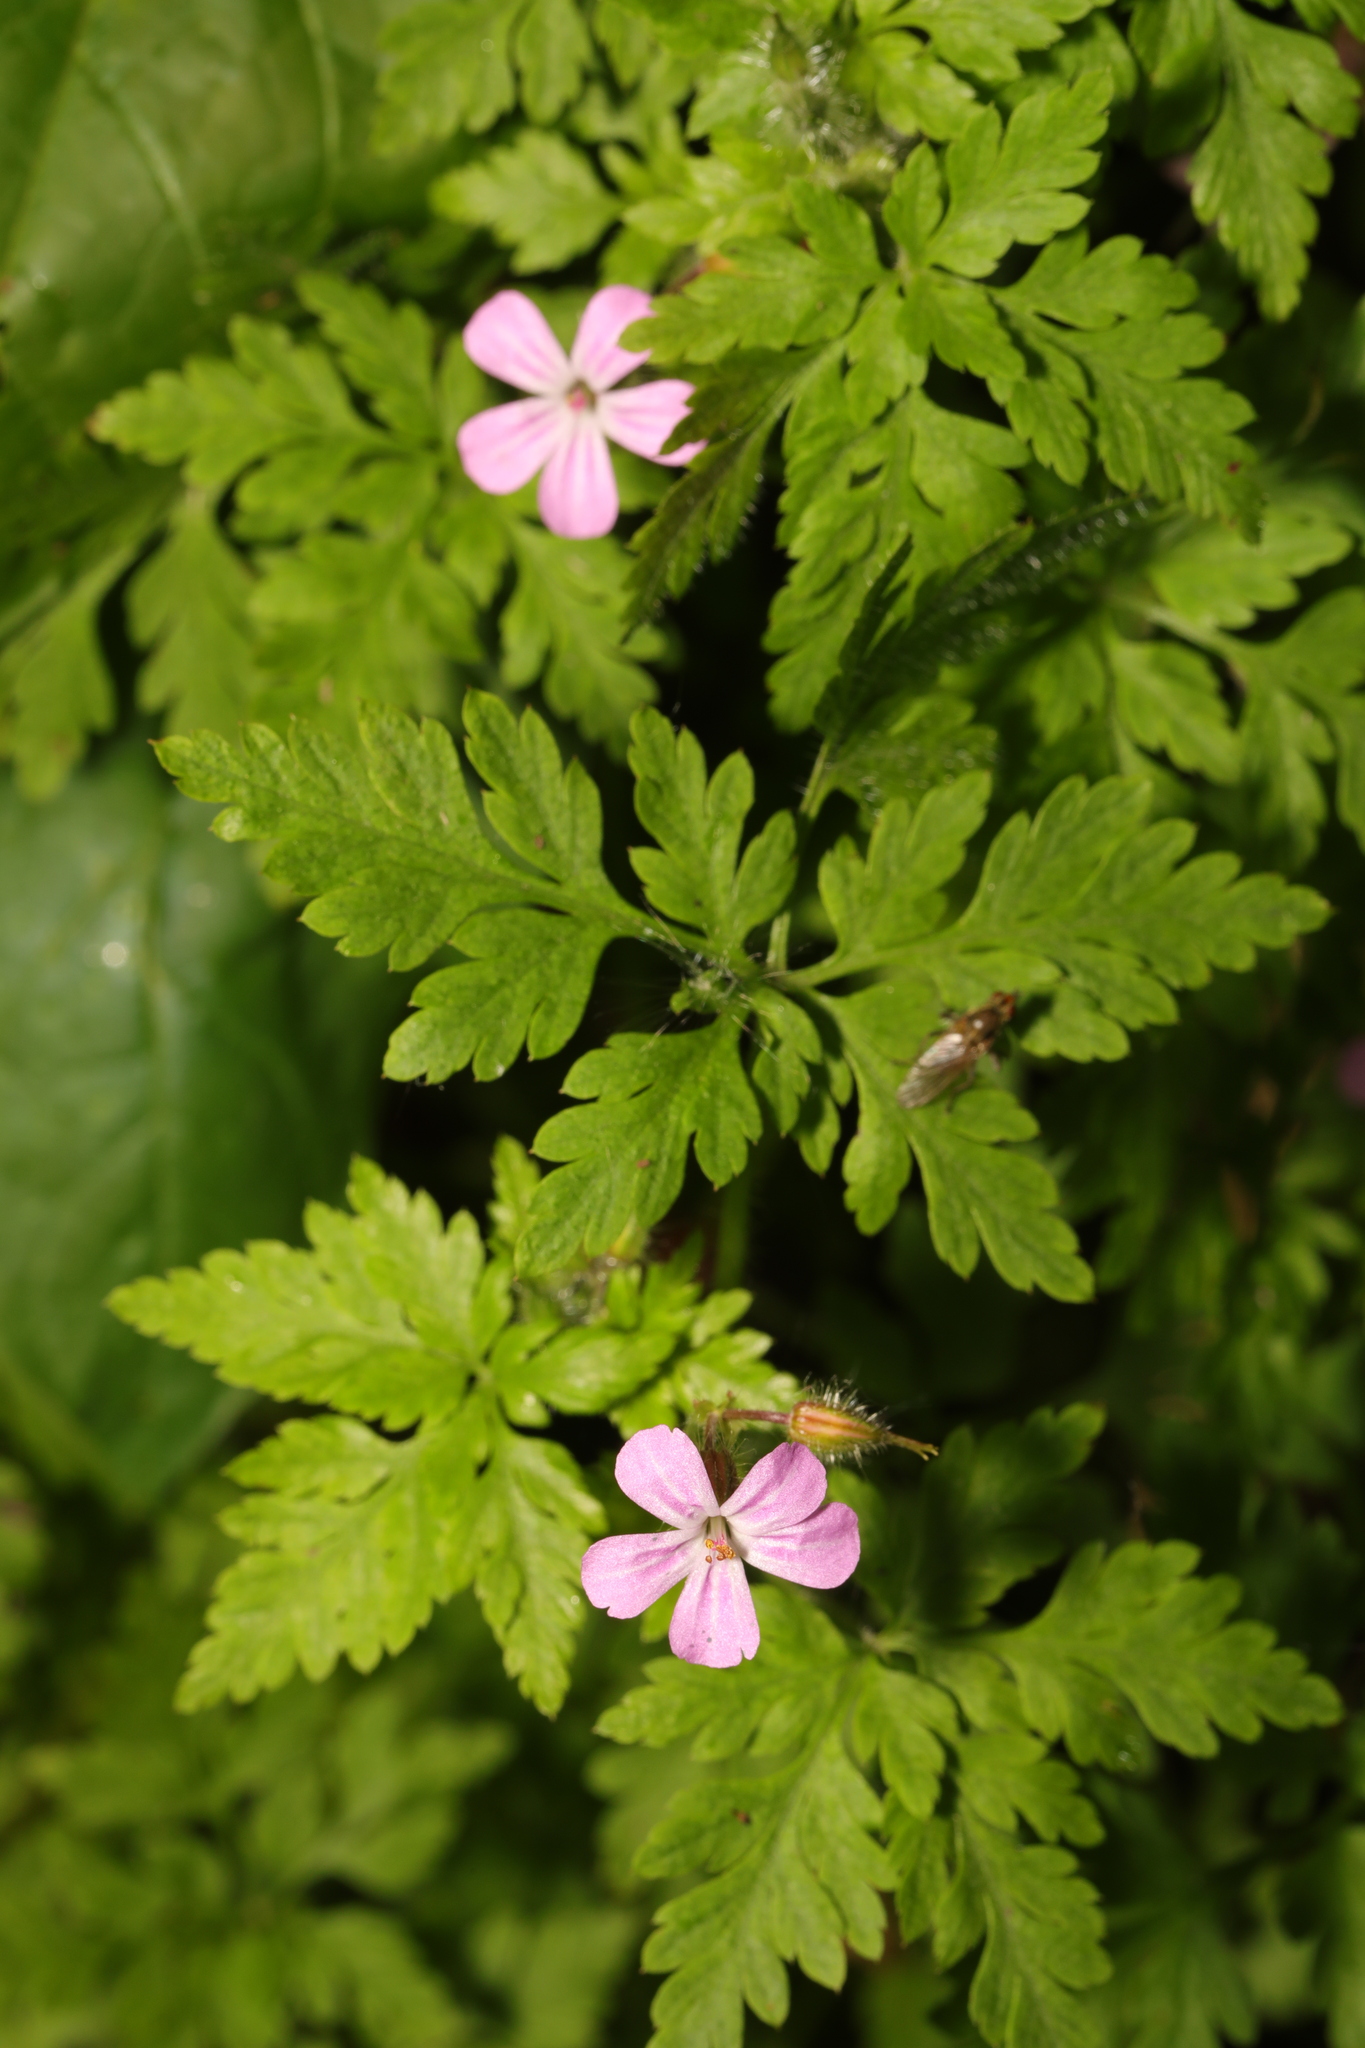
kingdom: Plantae
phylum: Tracheophyta
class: Magnoliopsida
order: Geraniales
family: Geraniaceae
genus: Geranium
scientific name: Geranium robertianum
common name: Herb-robert
